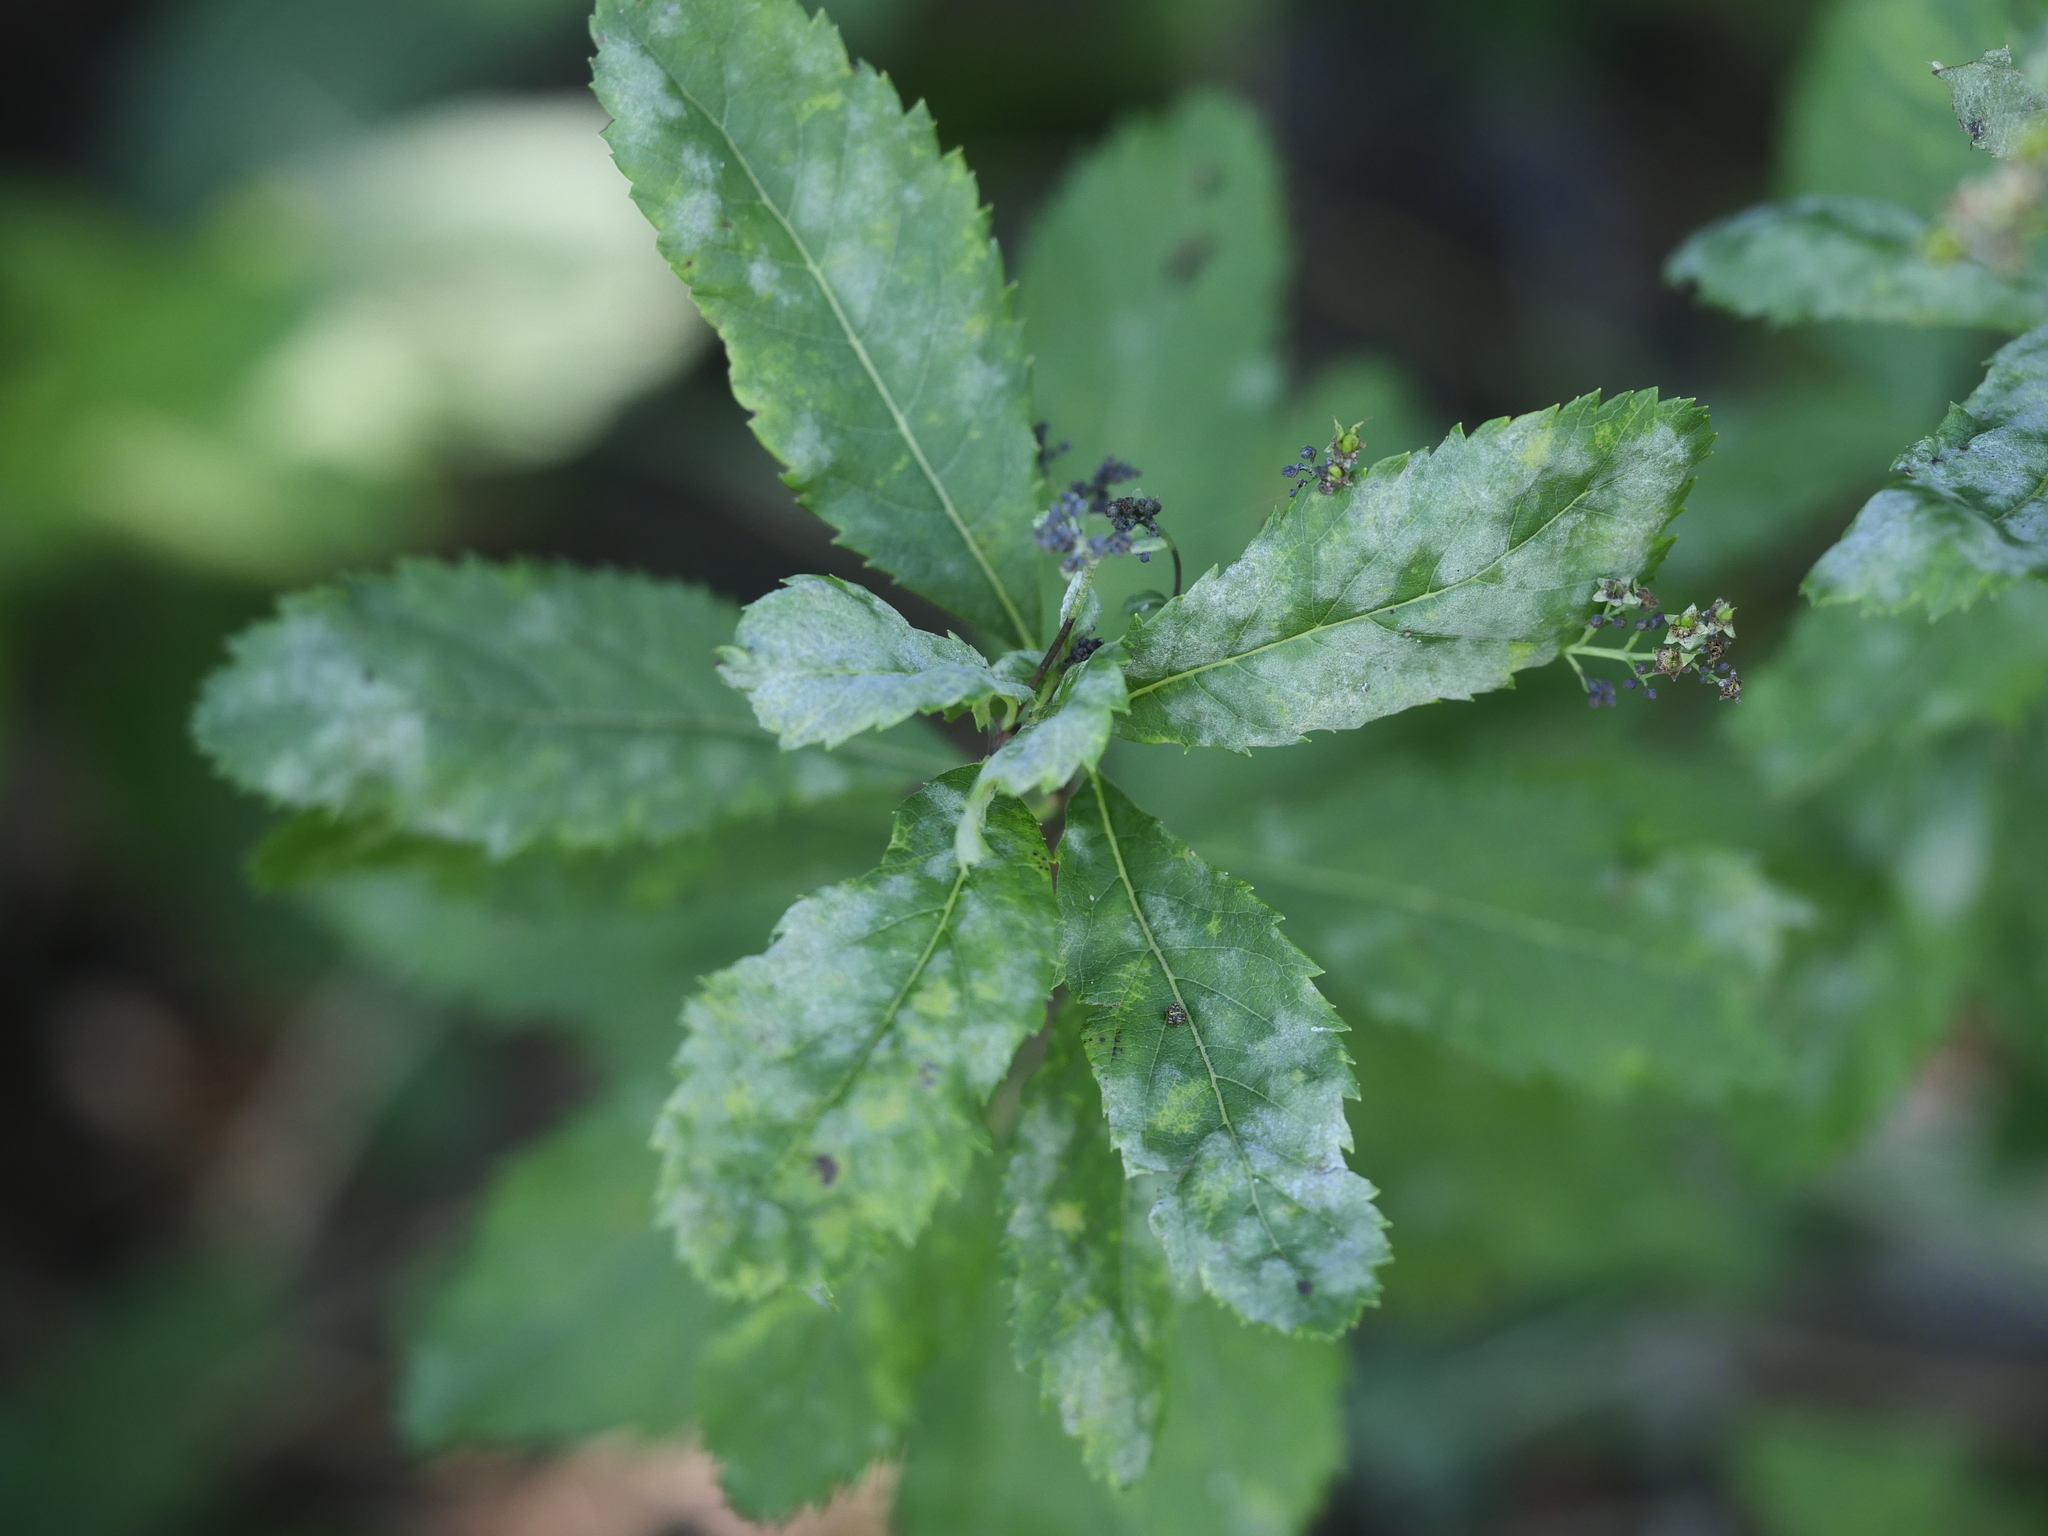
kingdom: Fungi
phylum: Ascomycota
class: Leotiomycetes
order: Helotiales
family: Erysiphaceae
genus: Podosphaera
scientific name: Podosphaera minor
